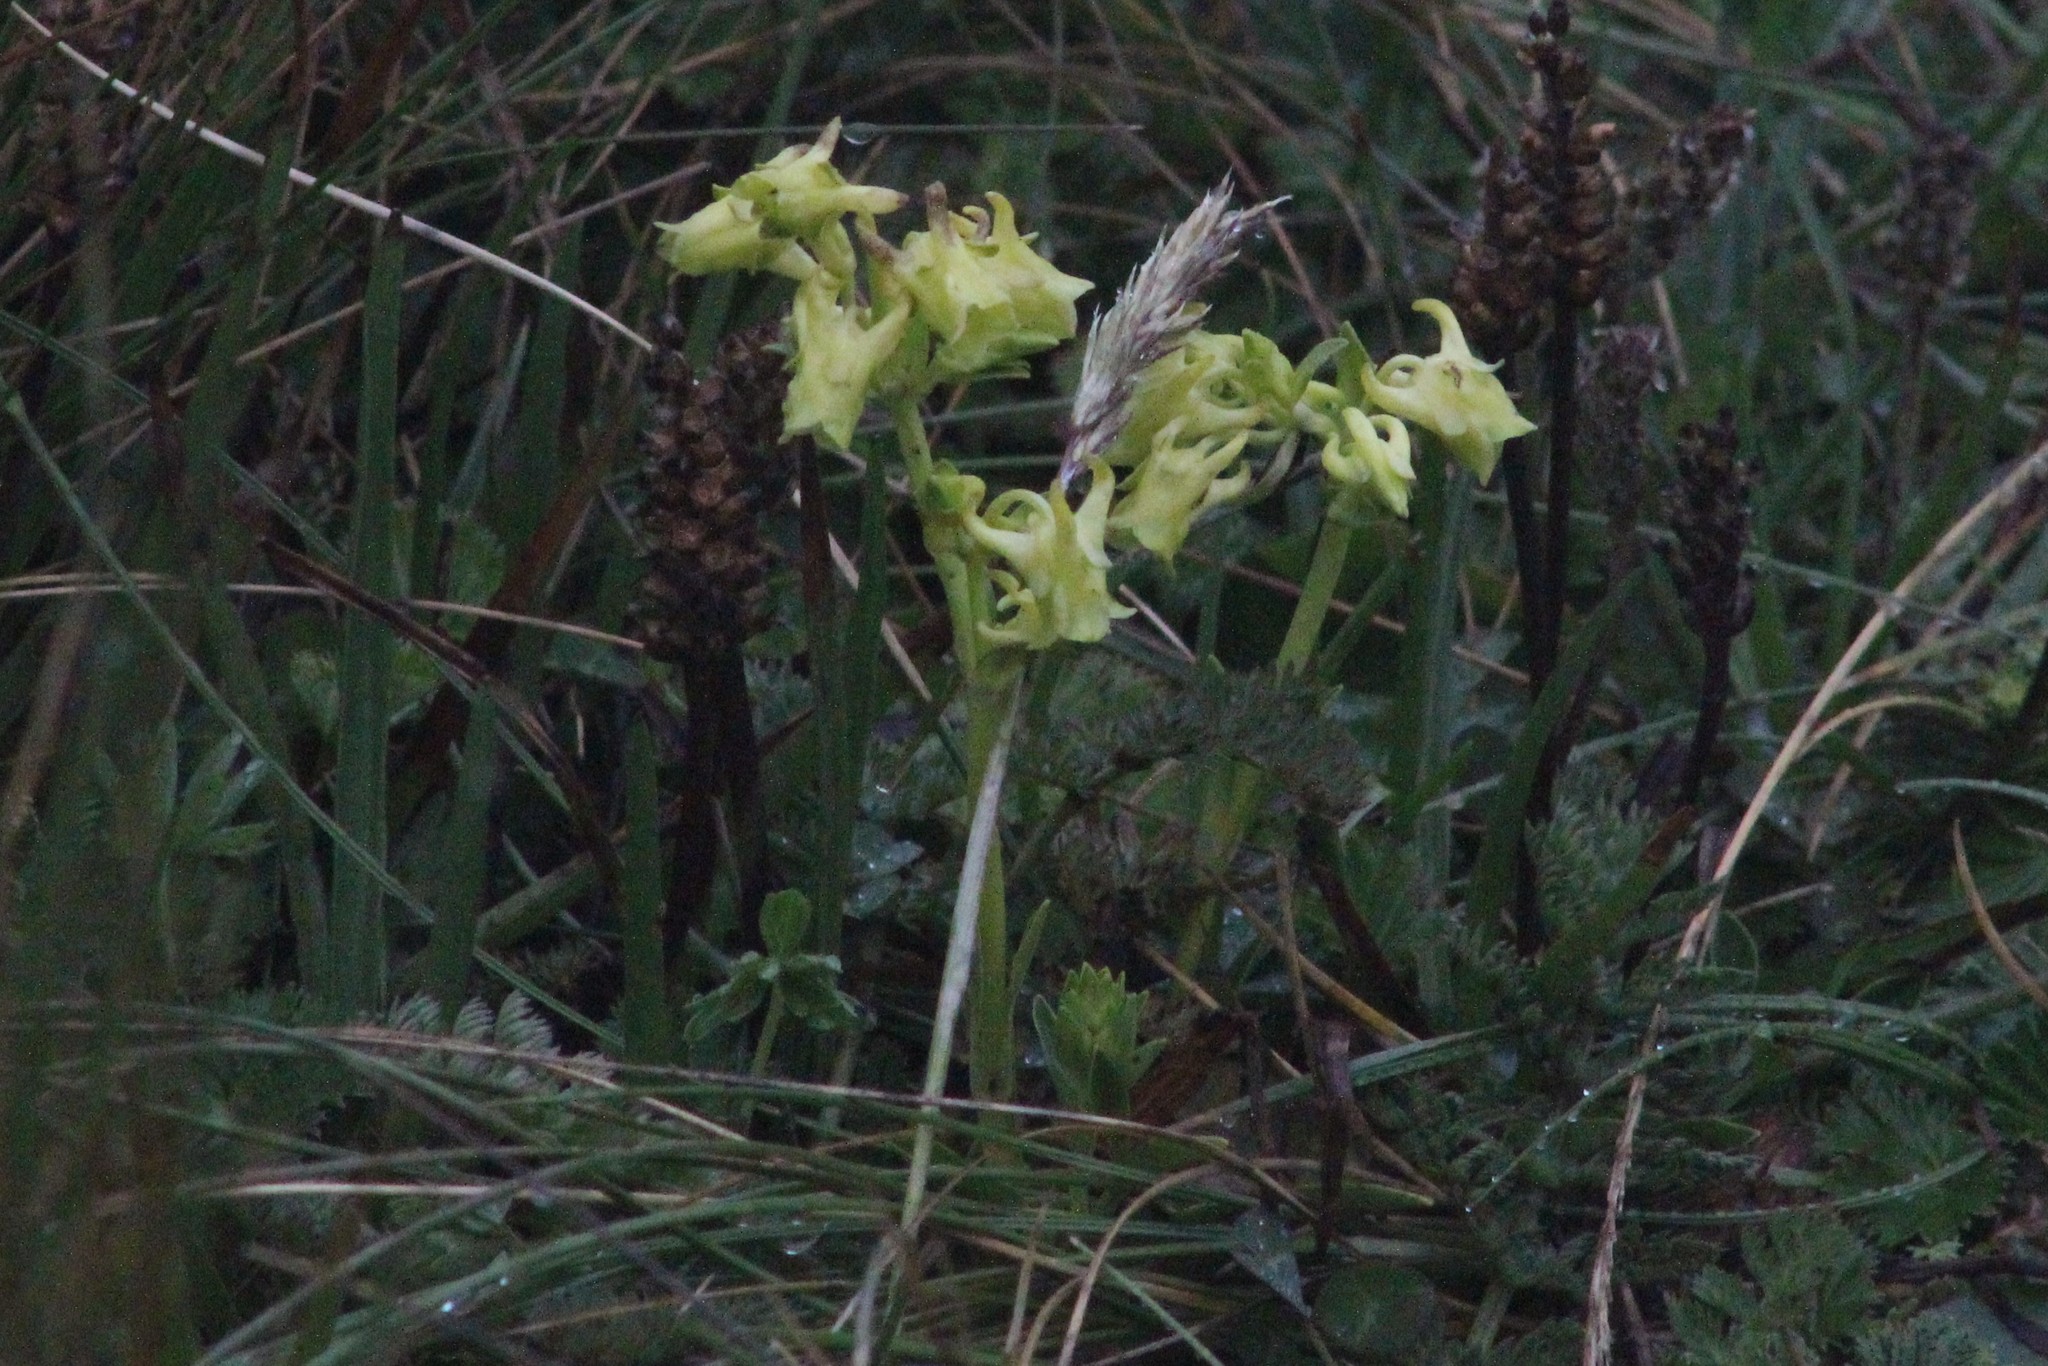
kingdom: Plantae
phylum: Tracheophyta
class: Magnoliopsida
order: Gentianales
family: Gentianaceae
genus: Halenia
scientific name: Halenia weddelliana
